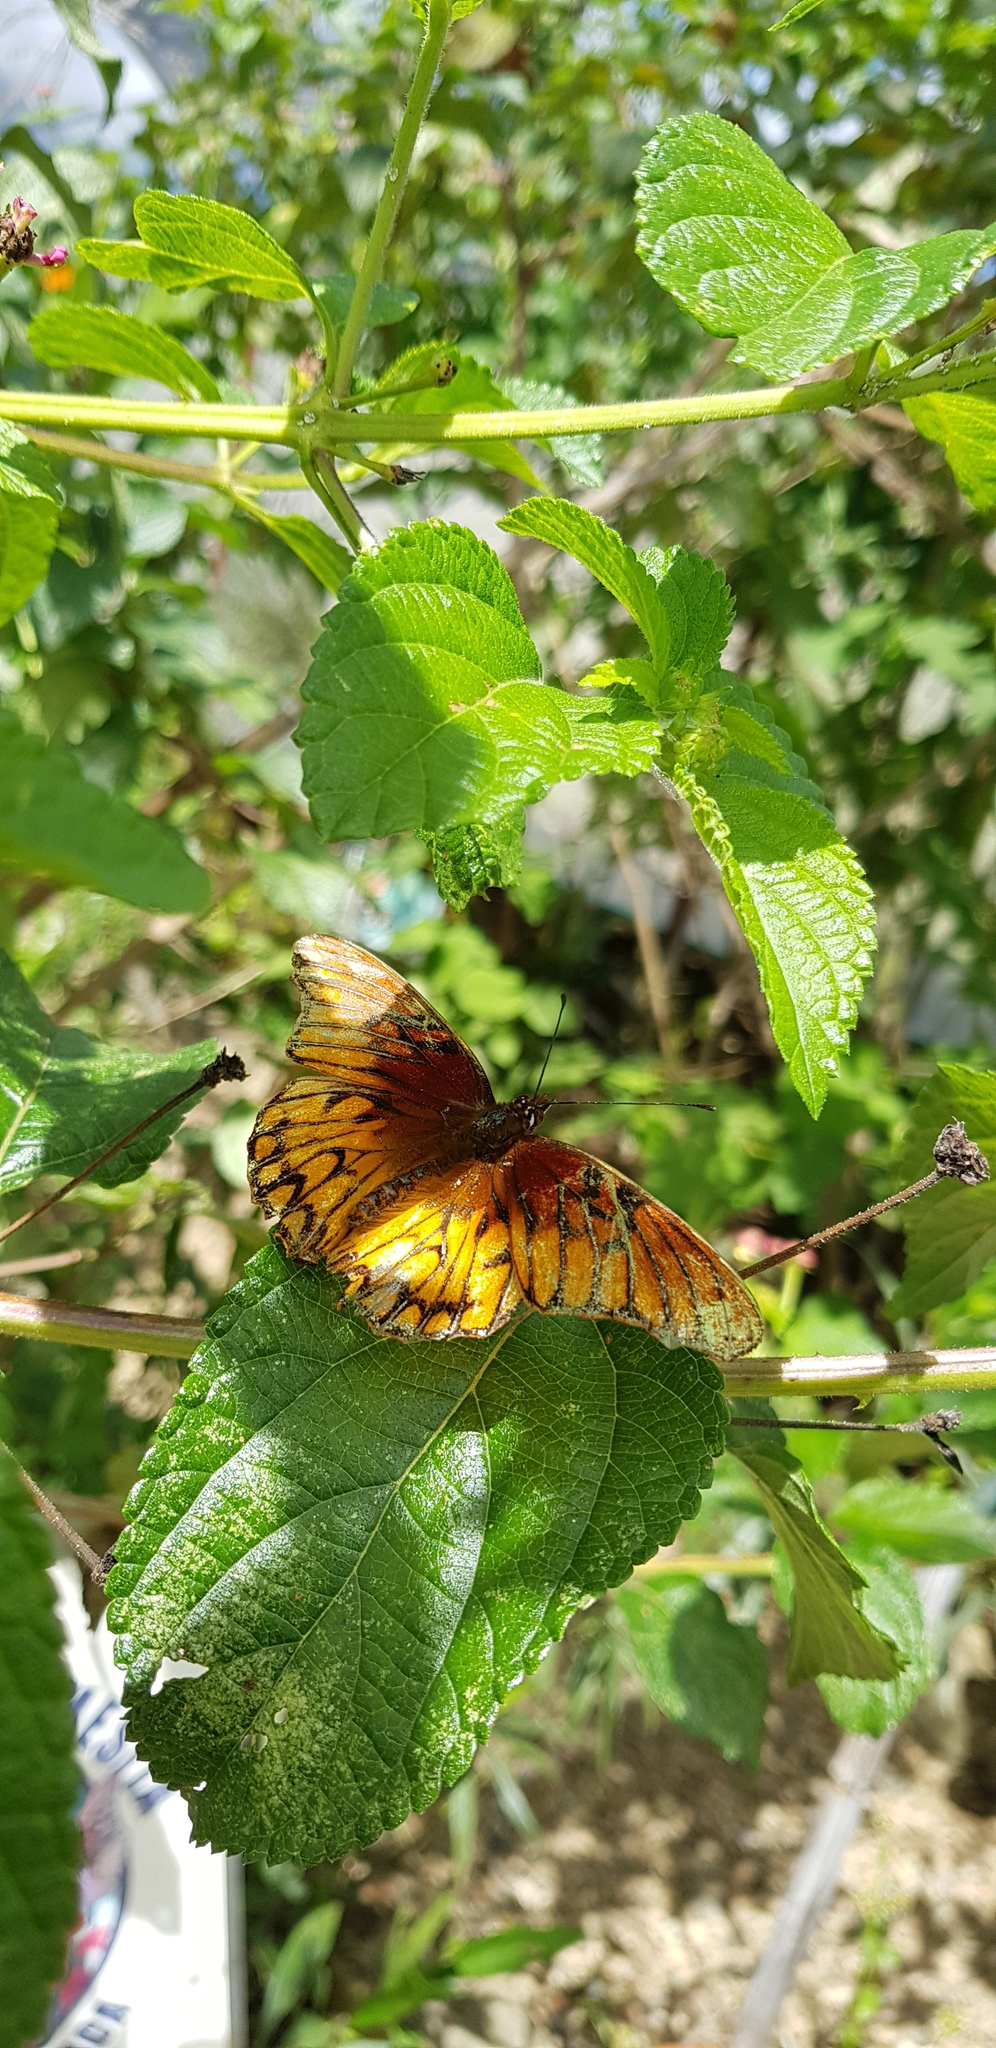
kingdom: Animalia
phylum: Arthropoda
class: Insecta
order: Lepidoptera
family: Nymphalidae
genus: Dione
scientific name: Dione moneta
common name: Mexican silverspot
